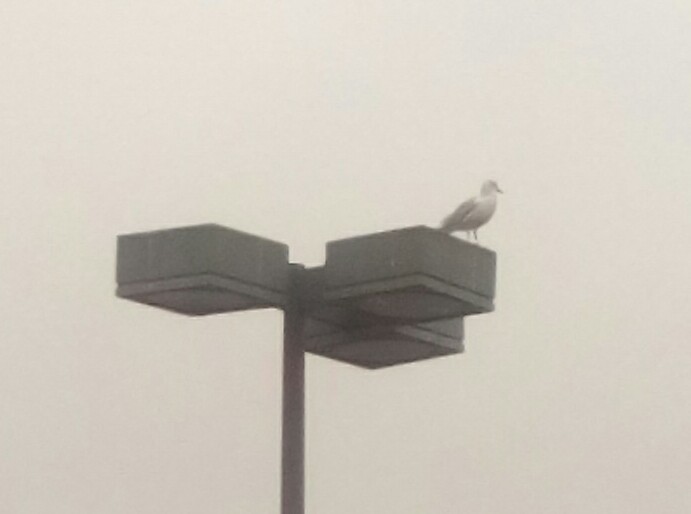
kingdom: Animalia
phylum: Chordata
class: Aves
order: Charadriiformes
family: Laridae
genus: Larus
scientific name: Larus delawarensis
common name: Ring-billed gull
